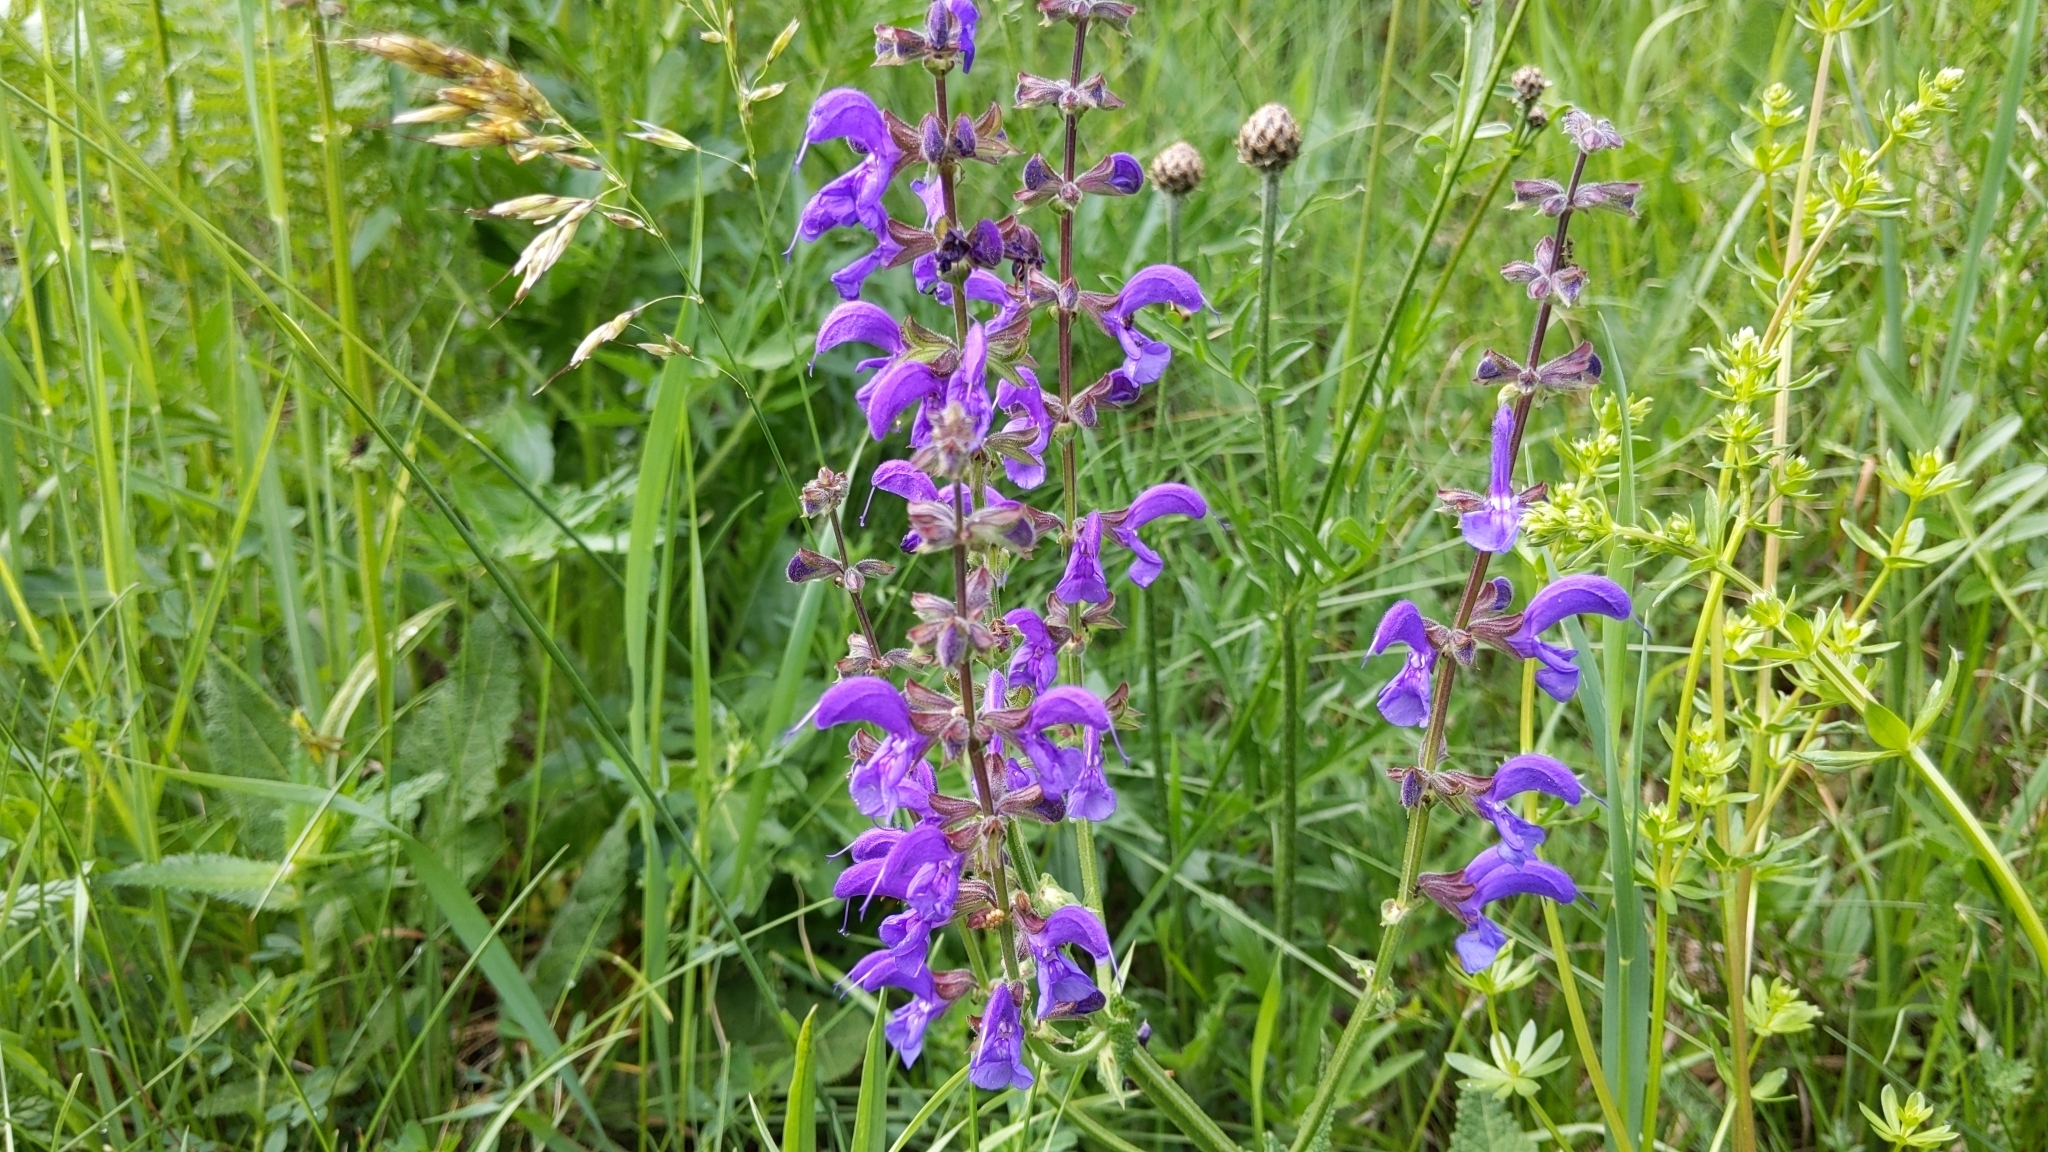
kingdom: Plantae
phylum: Tracheophyta
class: Magnoliopsida
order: Lamiales
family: Lamiaceae
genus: Salvia
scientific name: Salvia pratensis
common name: Meadow sage
